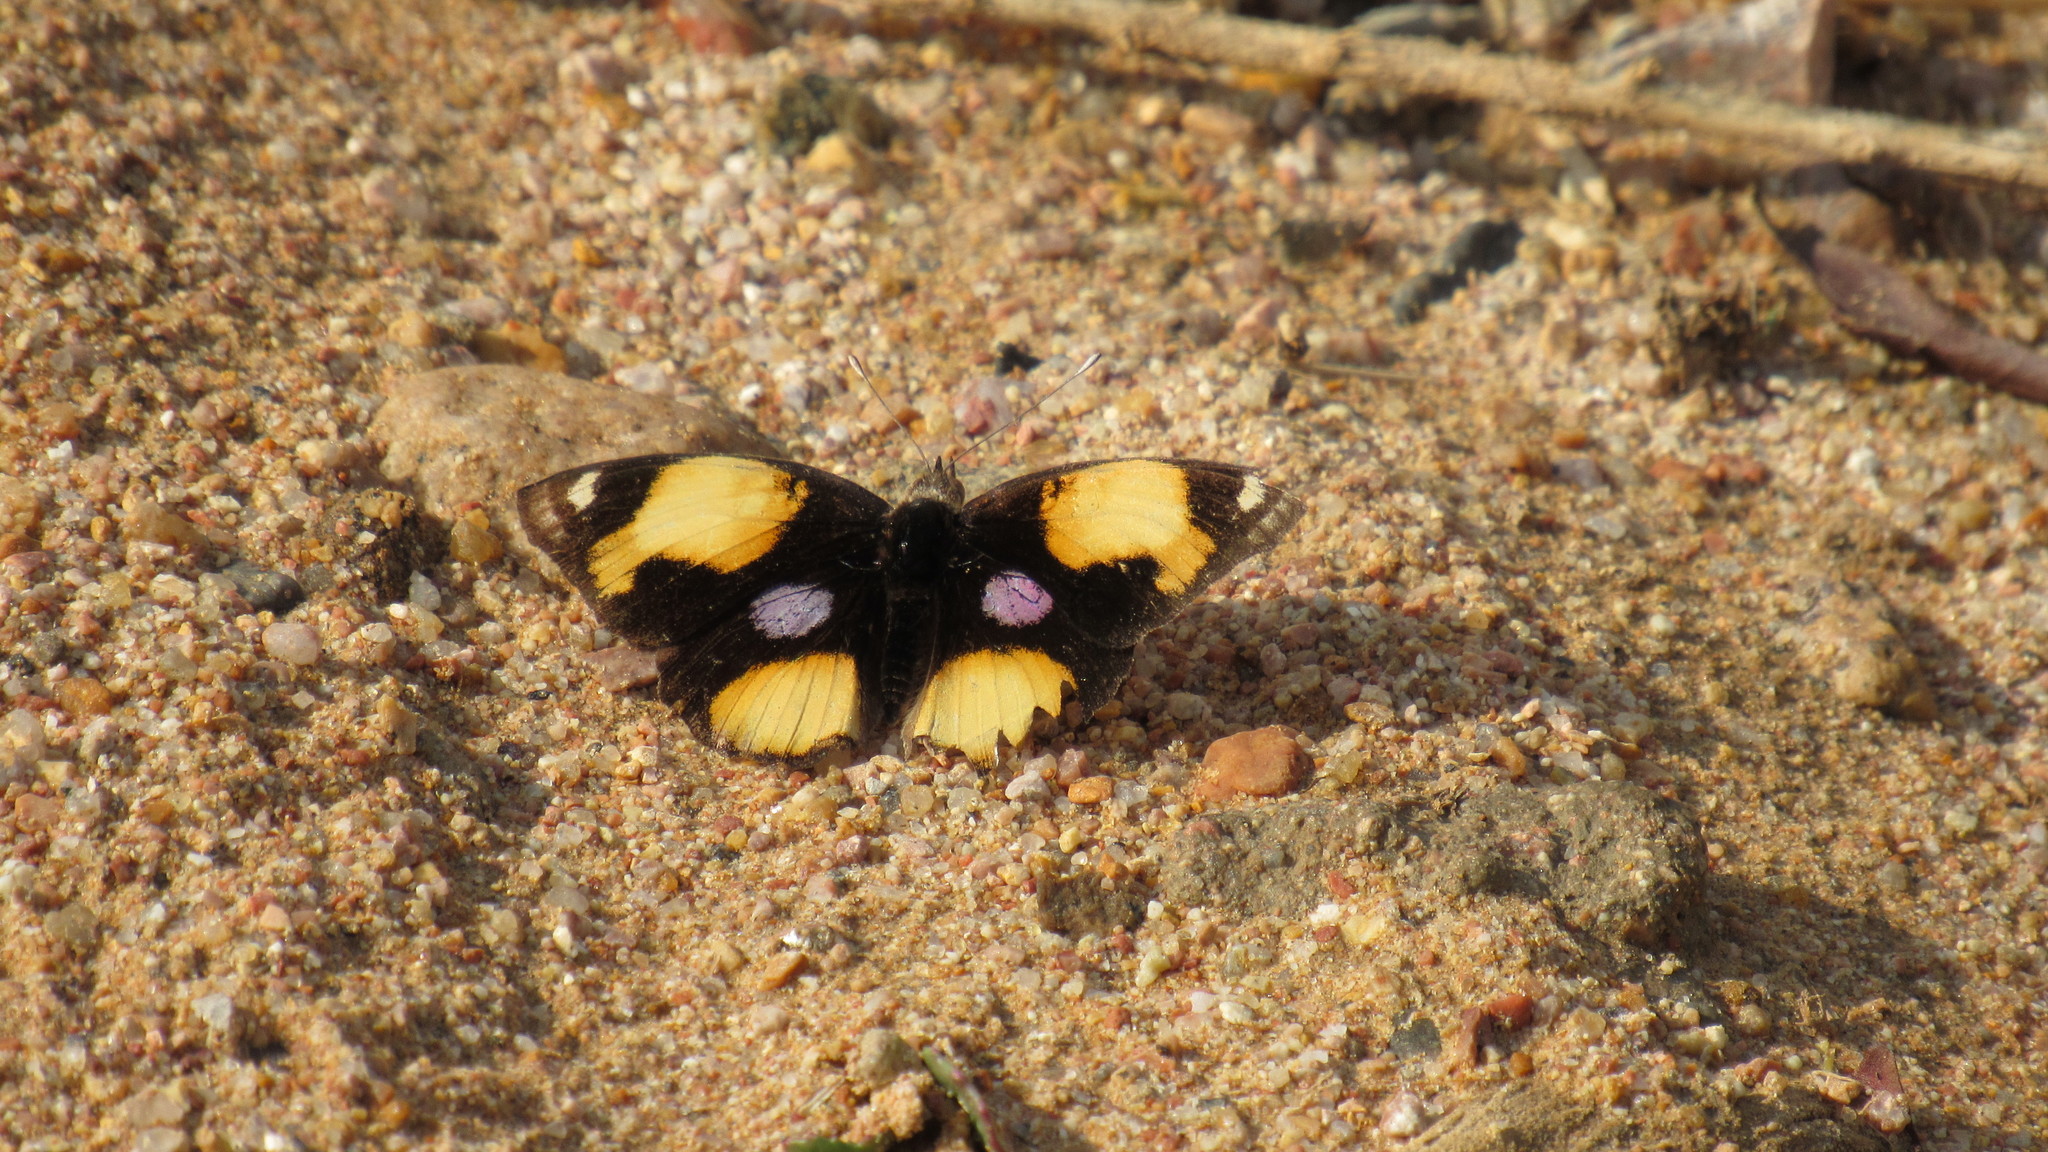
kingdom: Animalia
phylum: Arthropoda
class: Insecta
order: Lepidoptera
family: Nymphalidae
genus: Junonia
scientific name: Junonia hierta
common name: Yellow pansy
